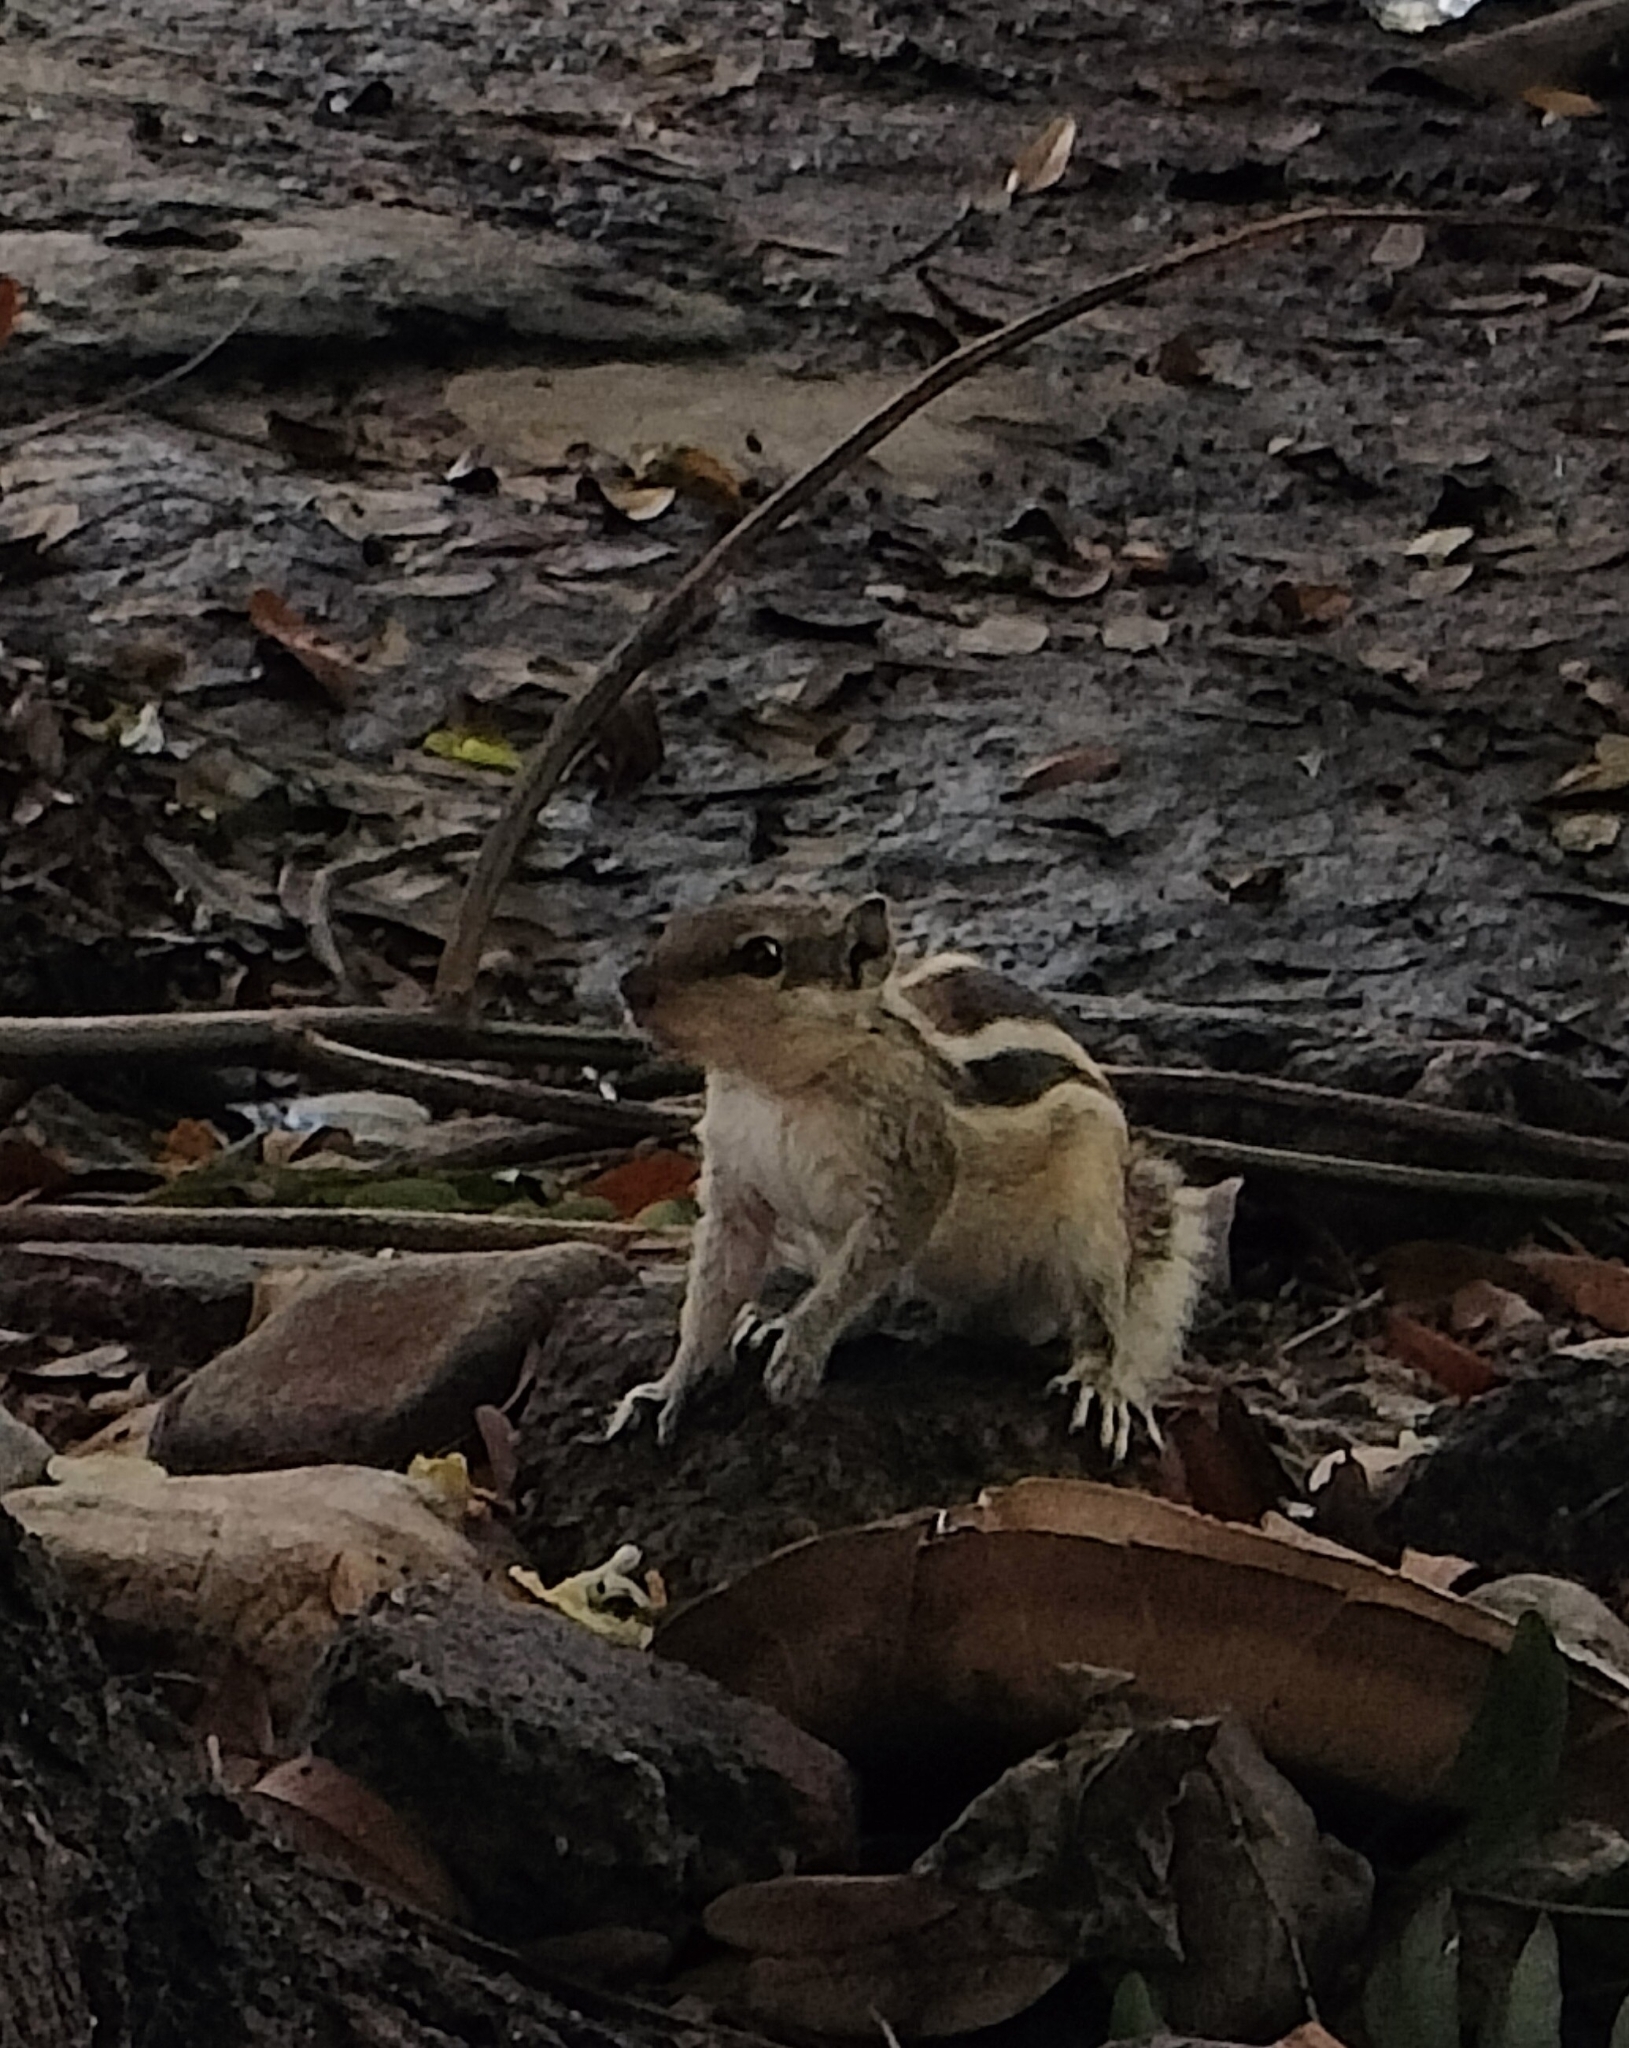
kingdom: Animalia
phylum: Chordata
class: Mammalia
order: Rodentia
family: Sciuridae
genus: Funambulus
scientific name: Funambulus pennantii
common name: Northern palm squirrel
